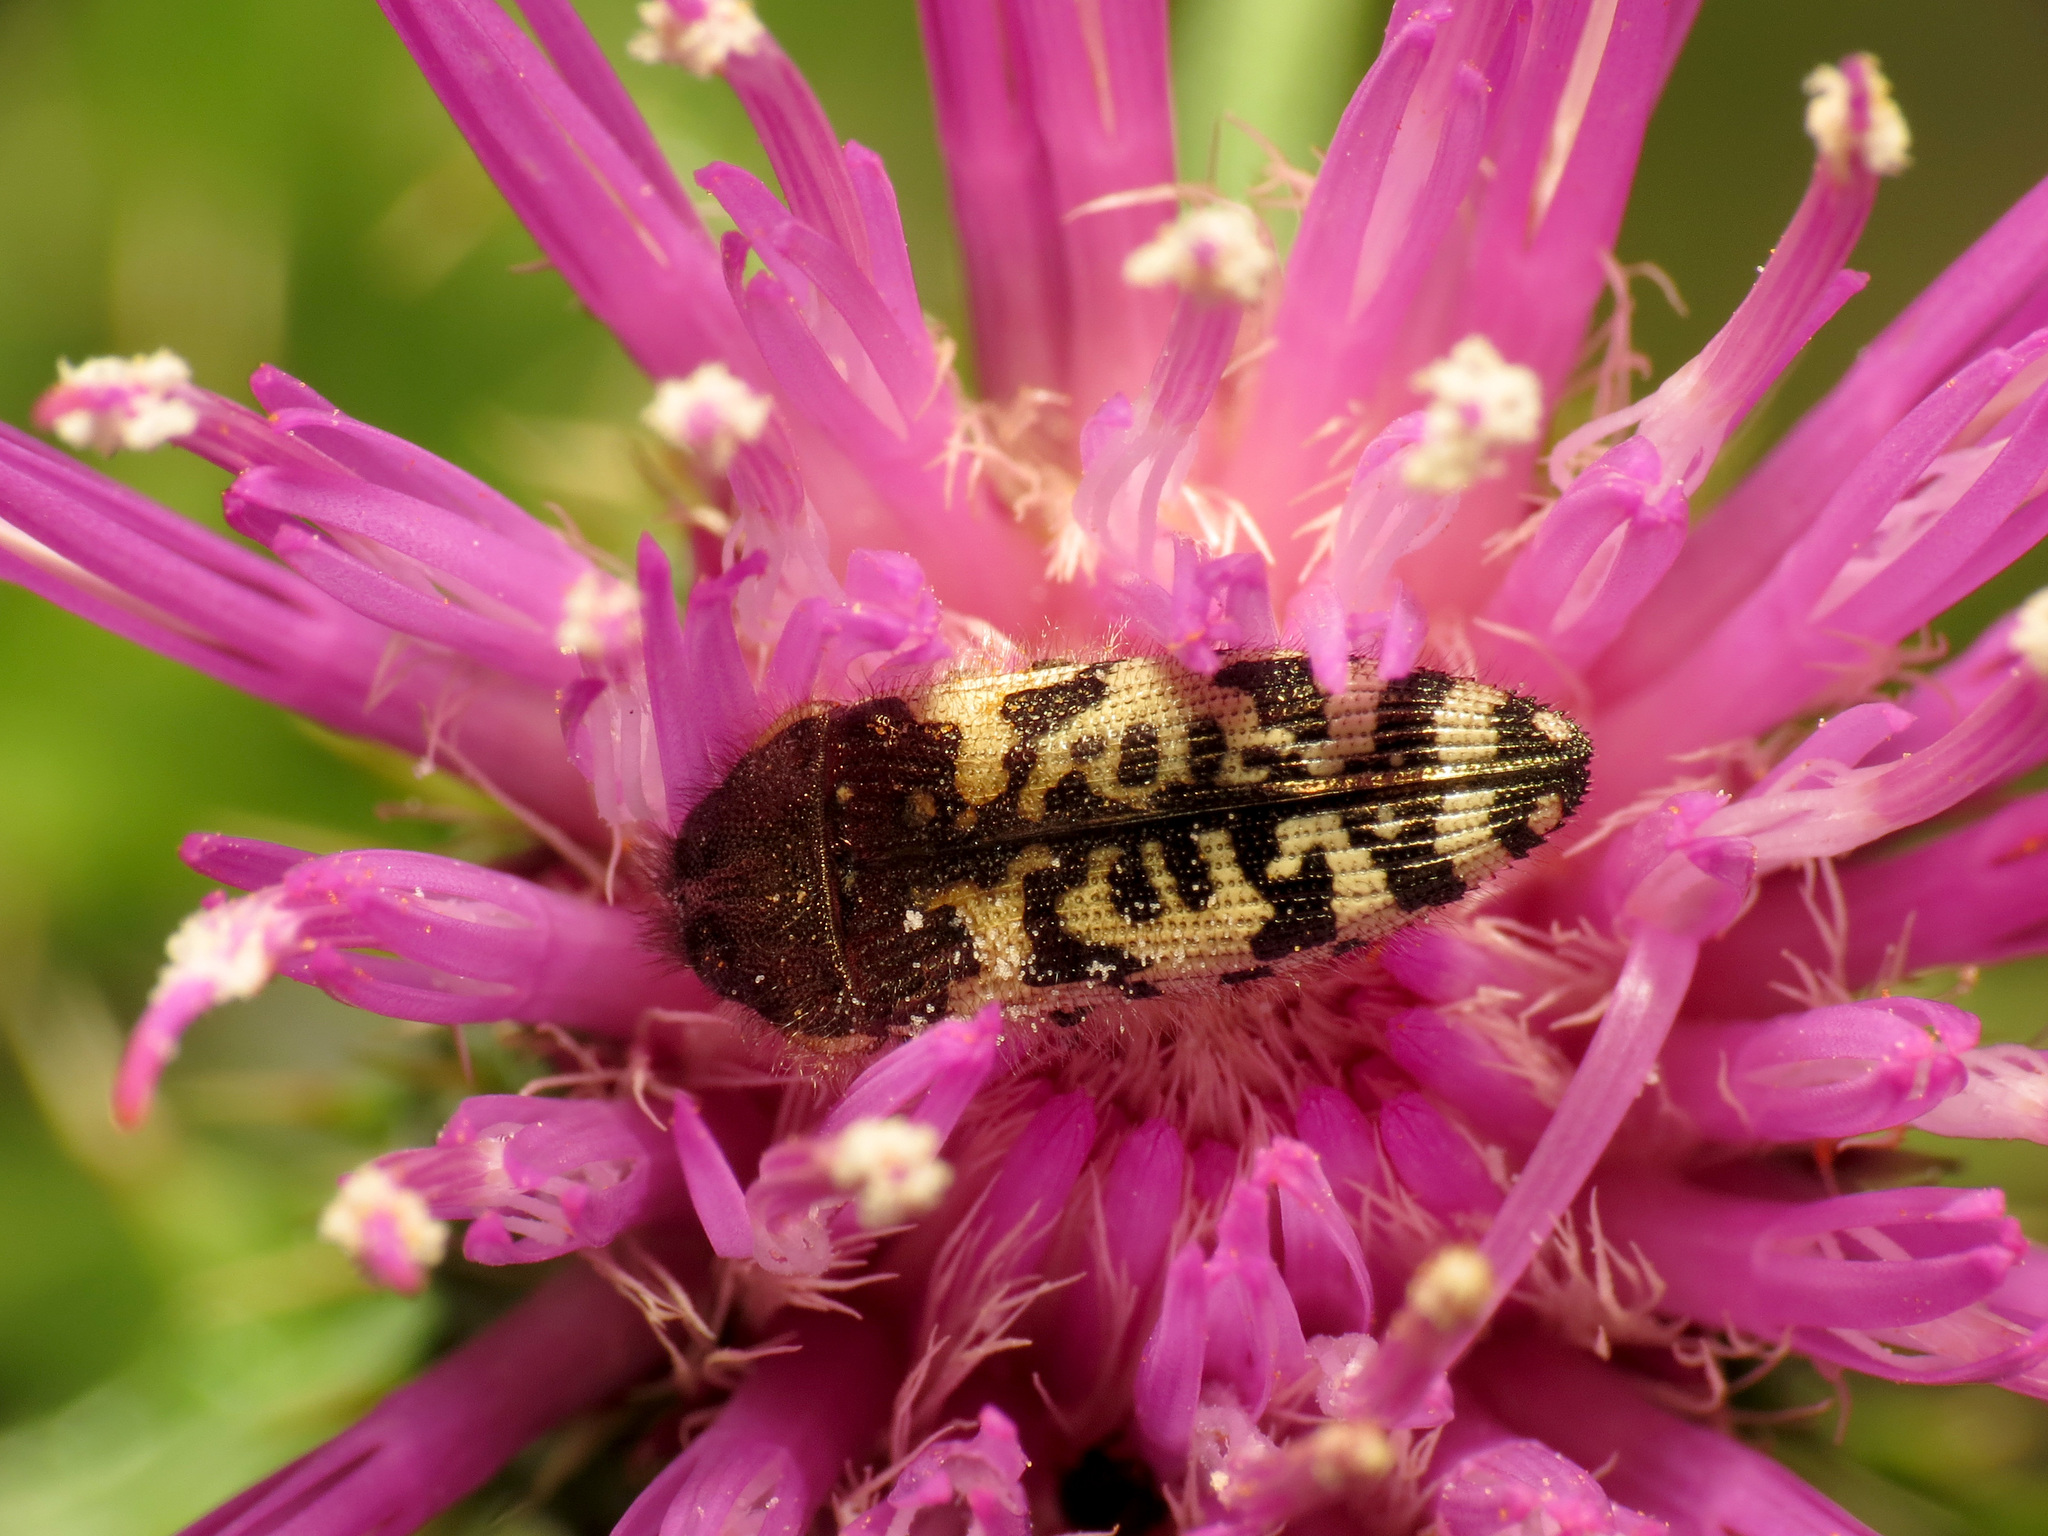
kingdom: Animalia
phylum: Arthropoda
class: Insecta
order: Coleoptera
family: Buprestidae
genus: Acmaeodera
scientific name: Acmaeodera decipiens
